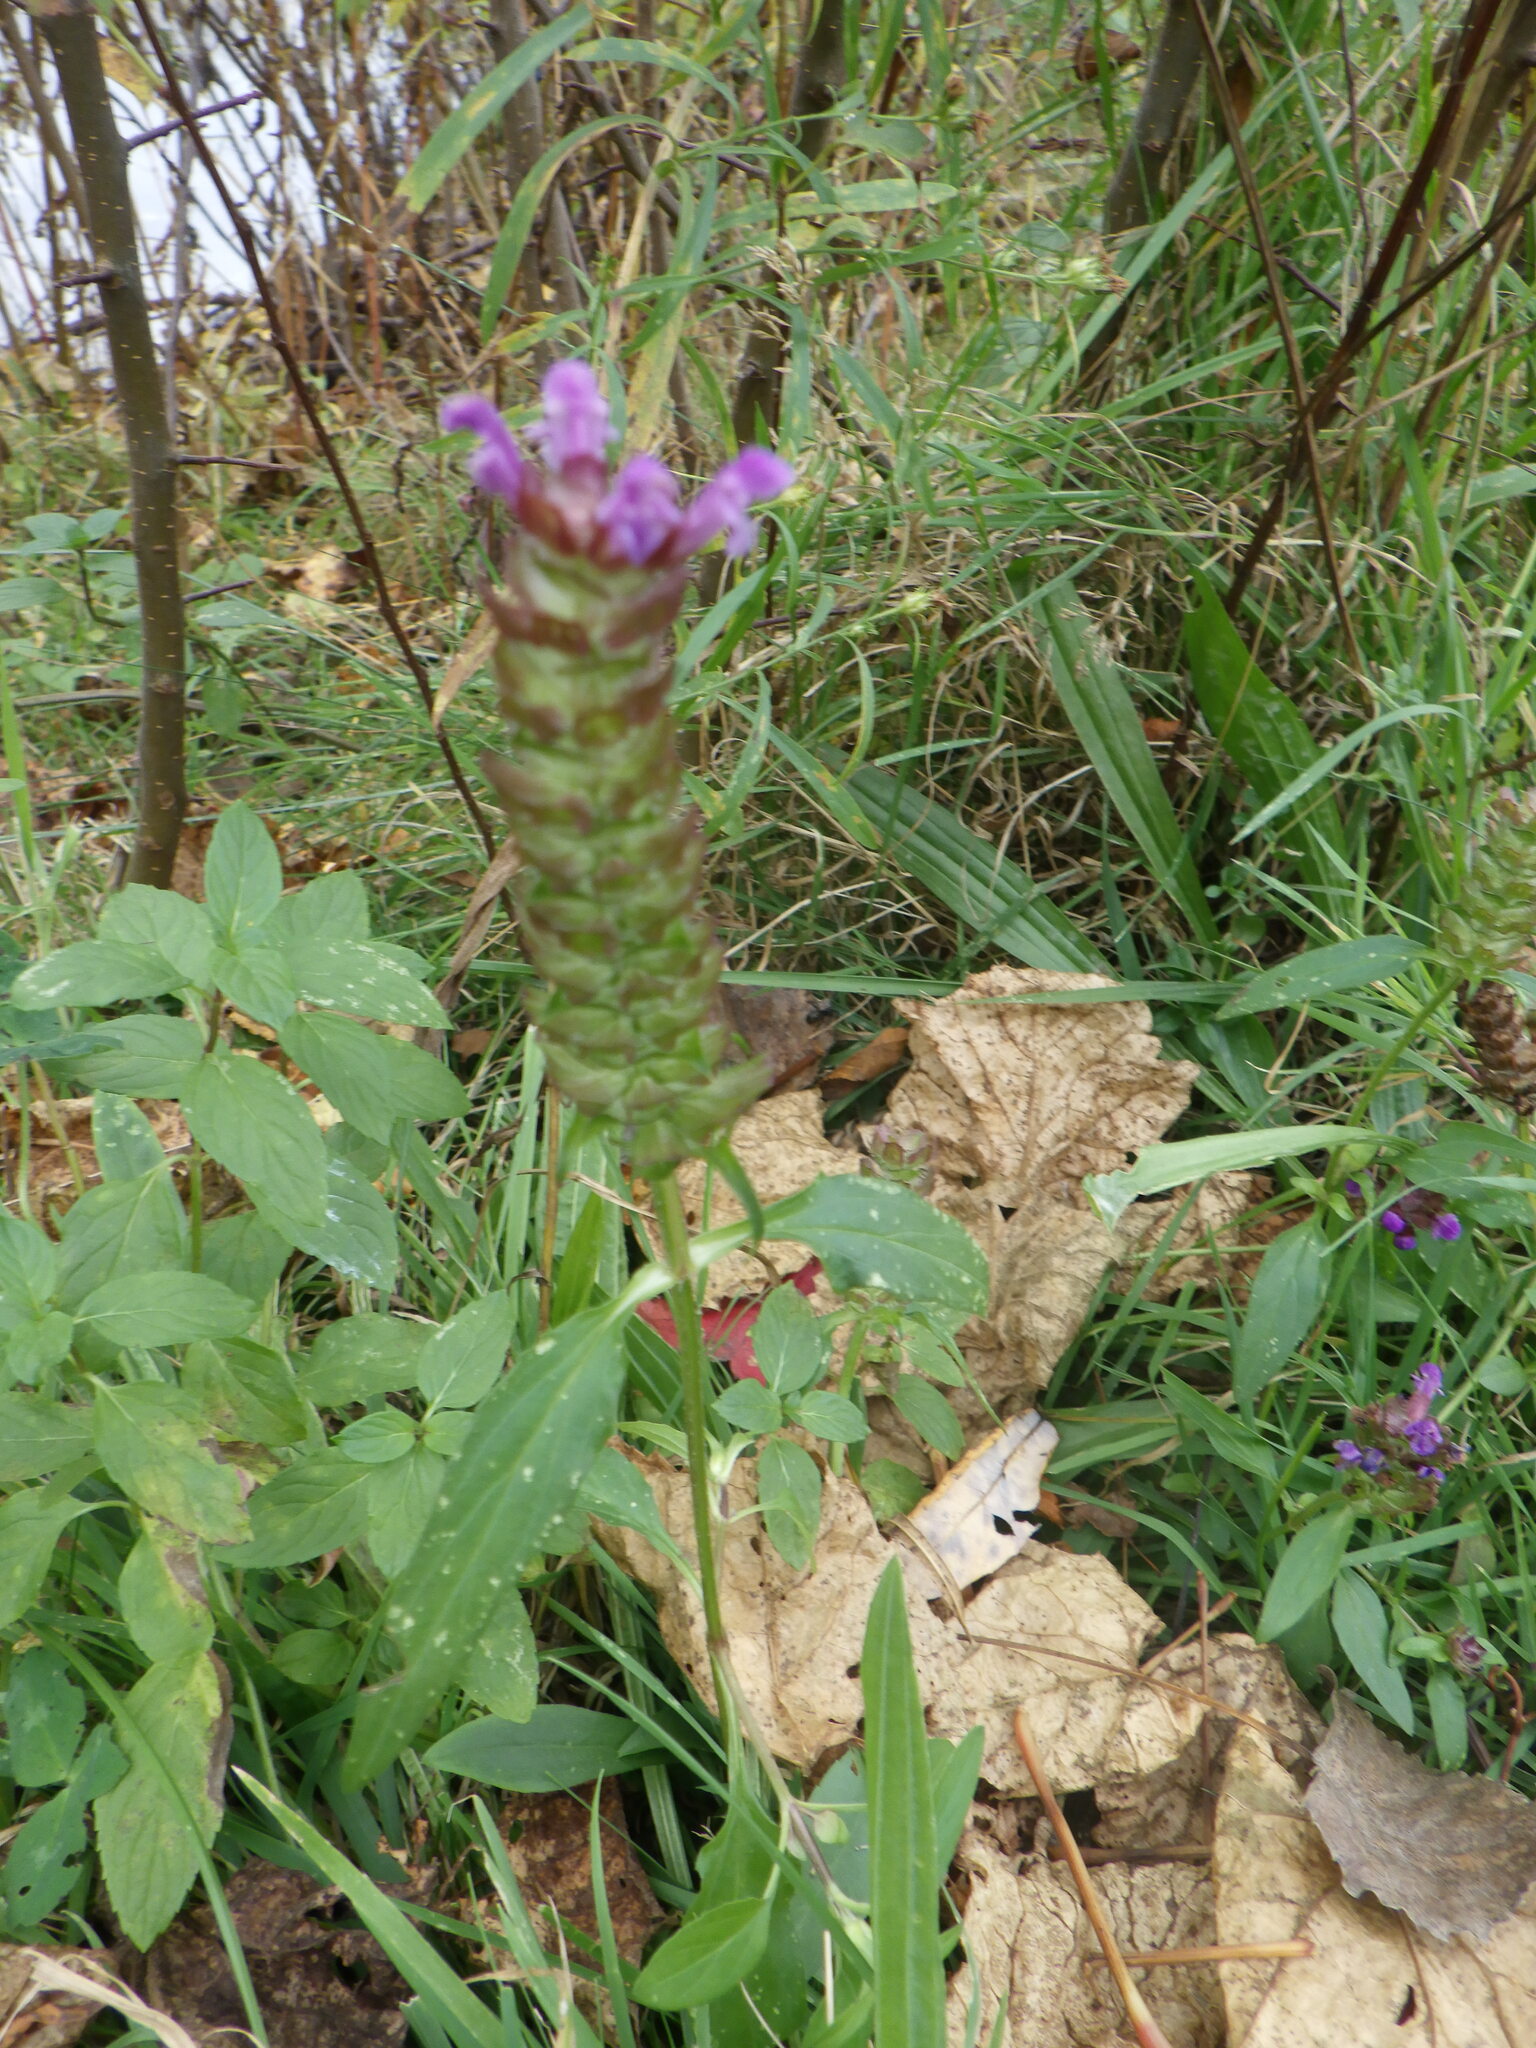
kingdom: Plantae
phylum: Tracheophyta
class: Magnoliopsida
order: Lamiales
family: Lamiaceae
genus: Prunella
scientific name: Prunella vulgaris
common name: Heal-all
